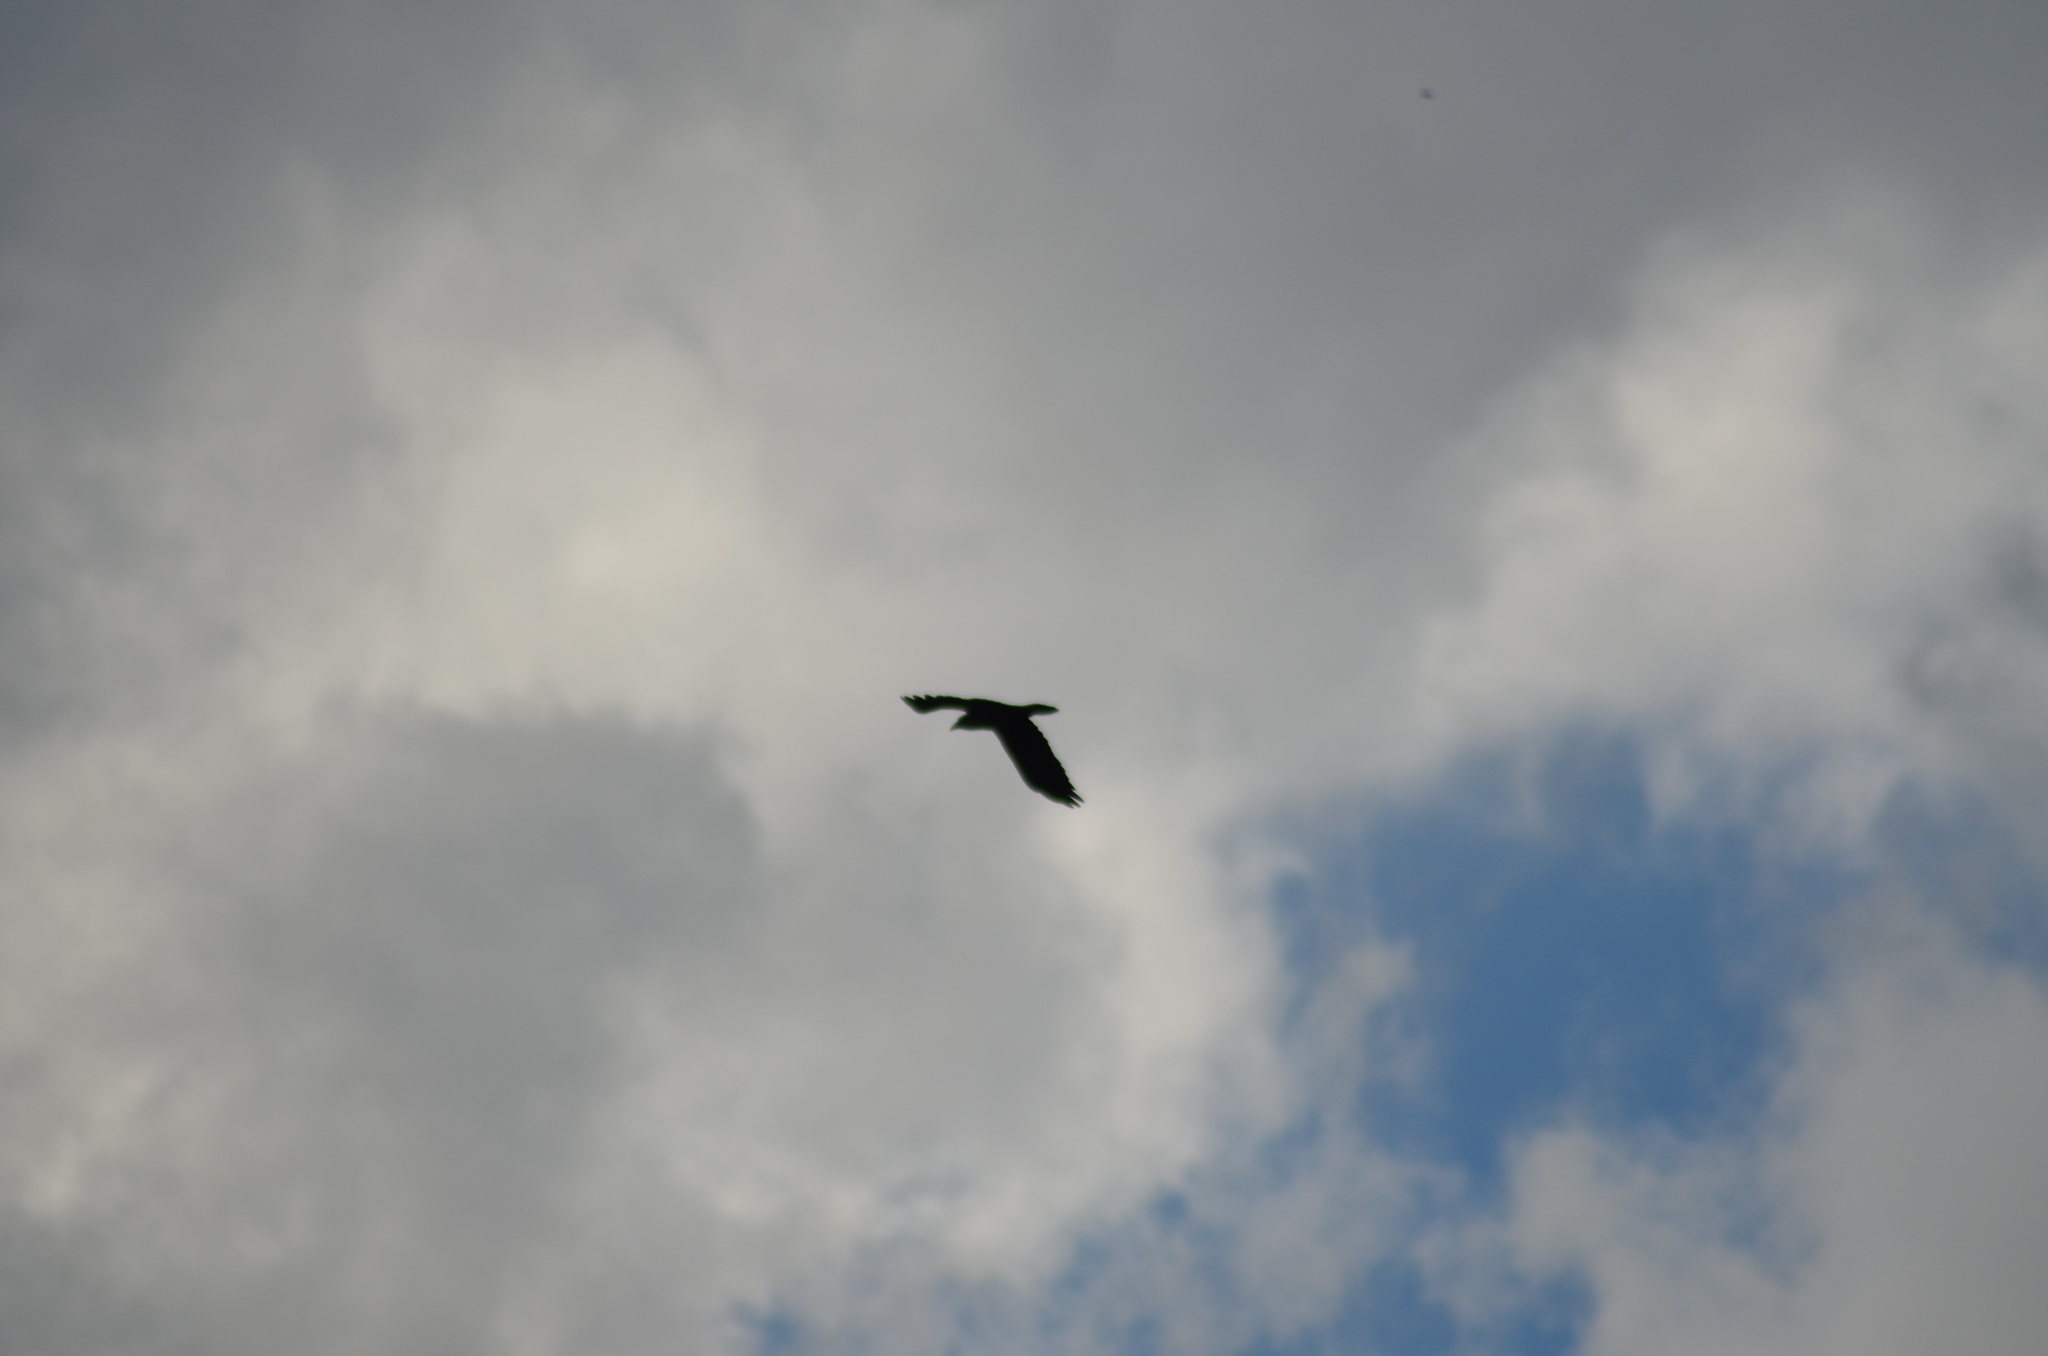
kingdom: Animalia
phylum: Chordata
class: Aves
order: Passeriformes
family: Corvidae
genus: Corvus
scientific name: Corvus corax
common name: Common raven
